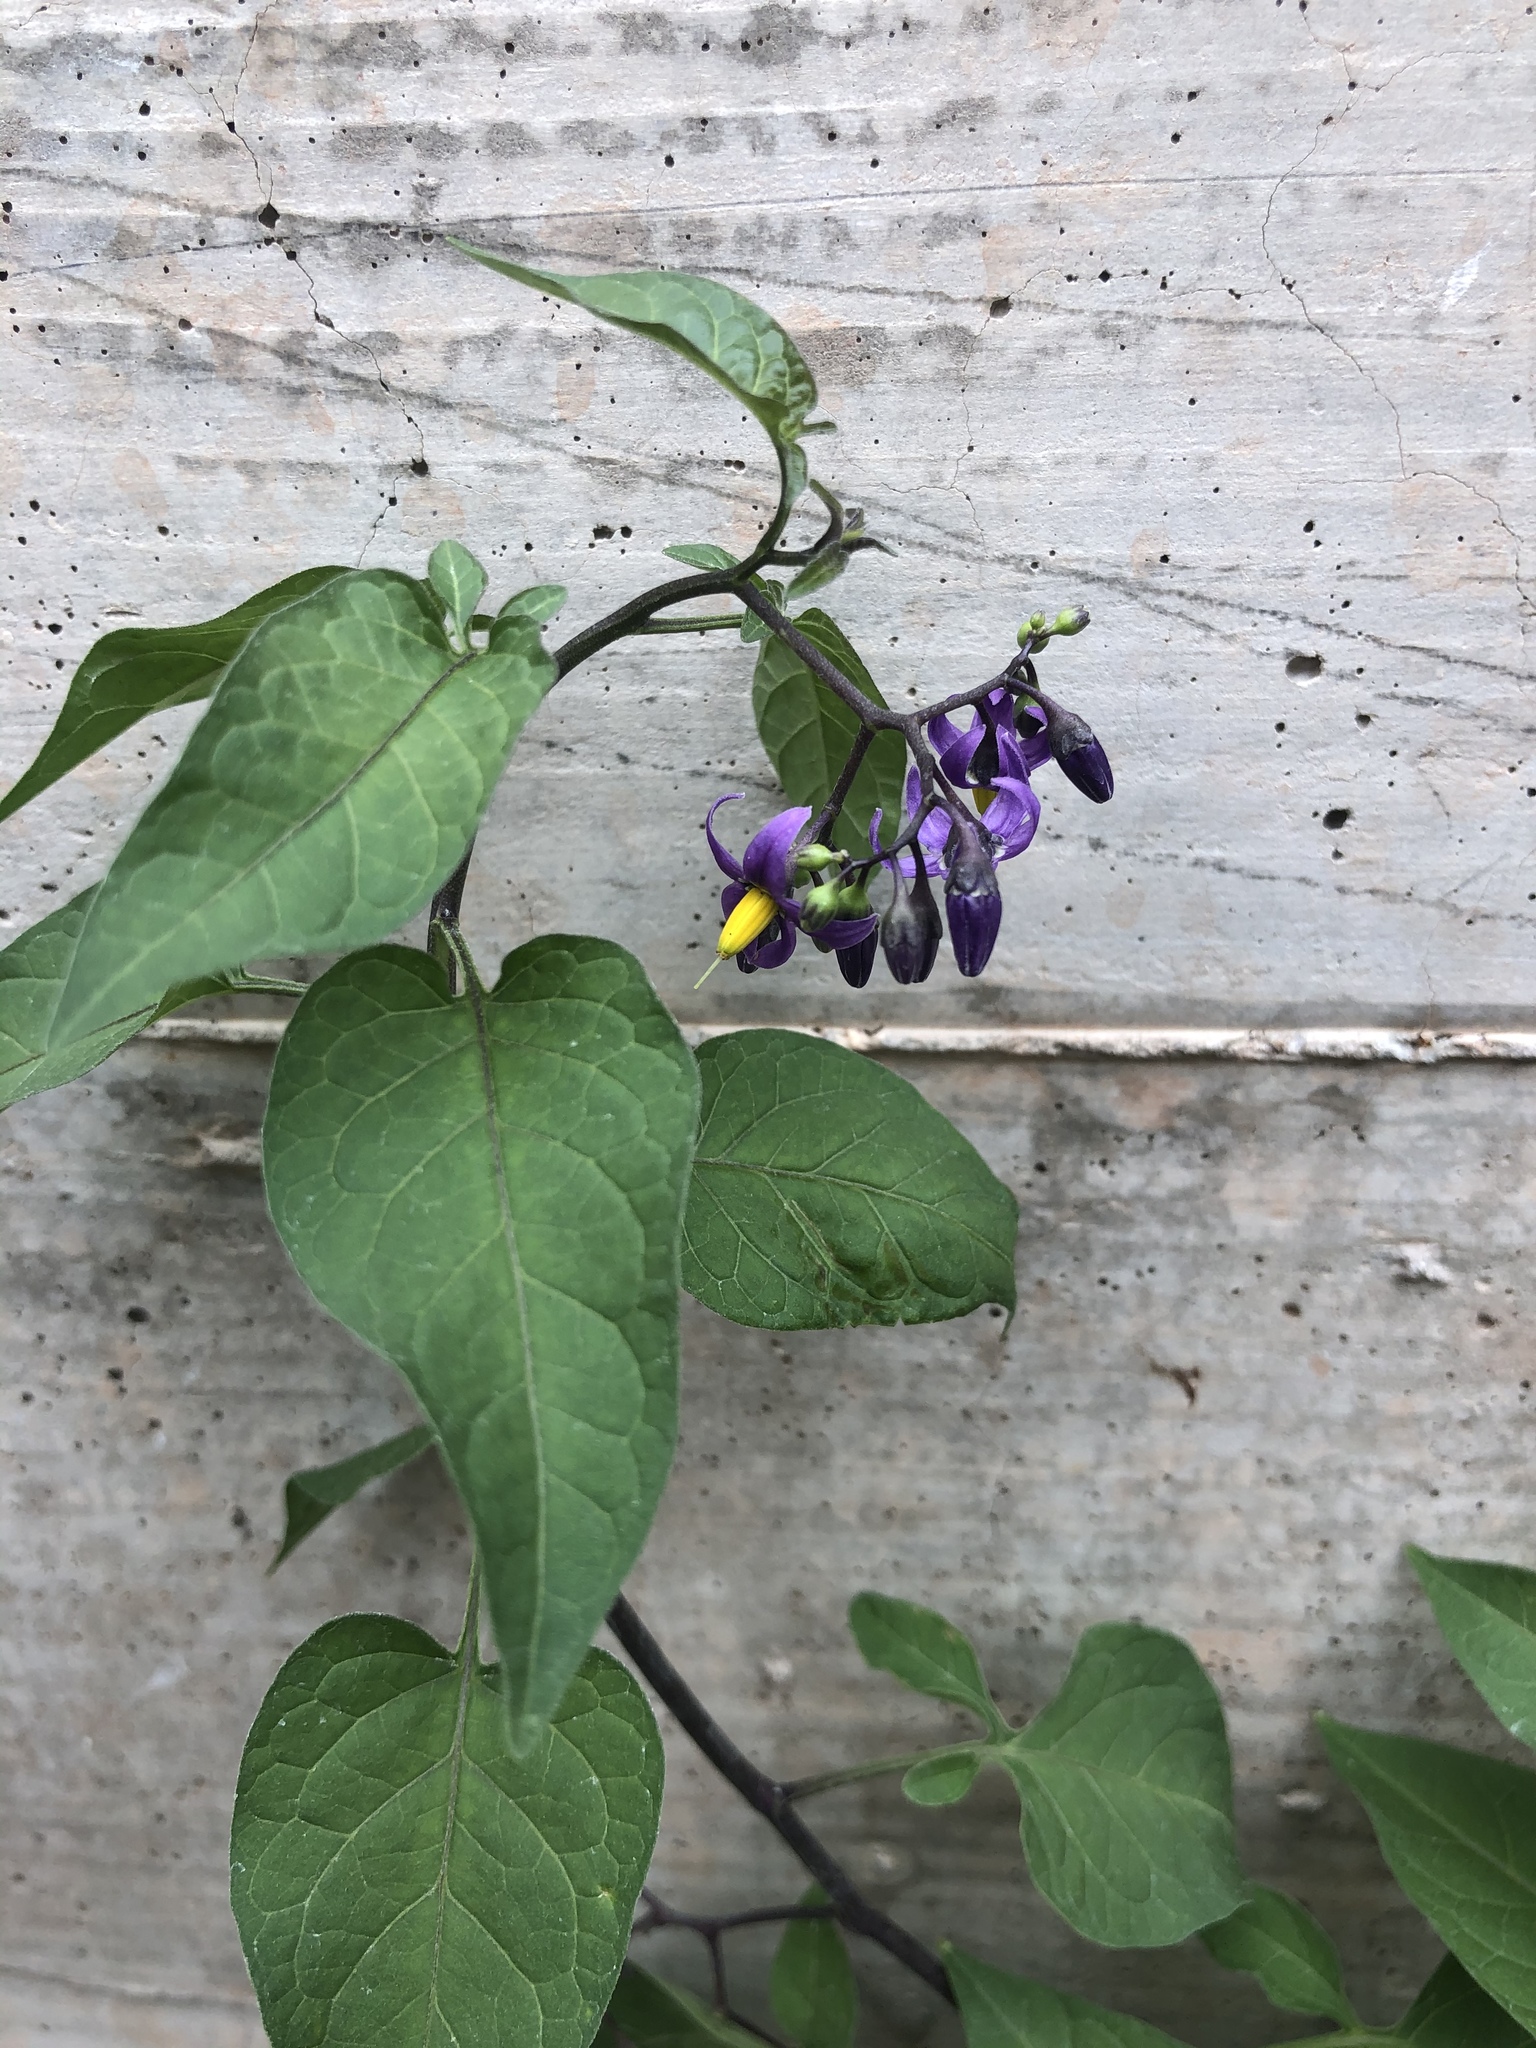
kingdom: Plantae
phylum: Tracheophyta
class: Magnoliopsida
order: Solanales
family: Solanaceae
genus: Solanum
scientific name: Solanum dulcamara
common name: Climbing nightshade
